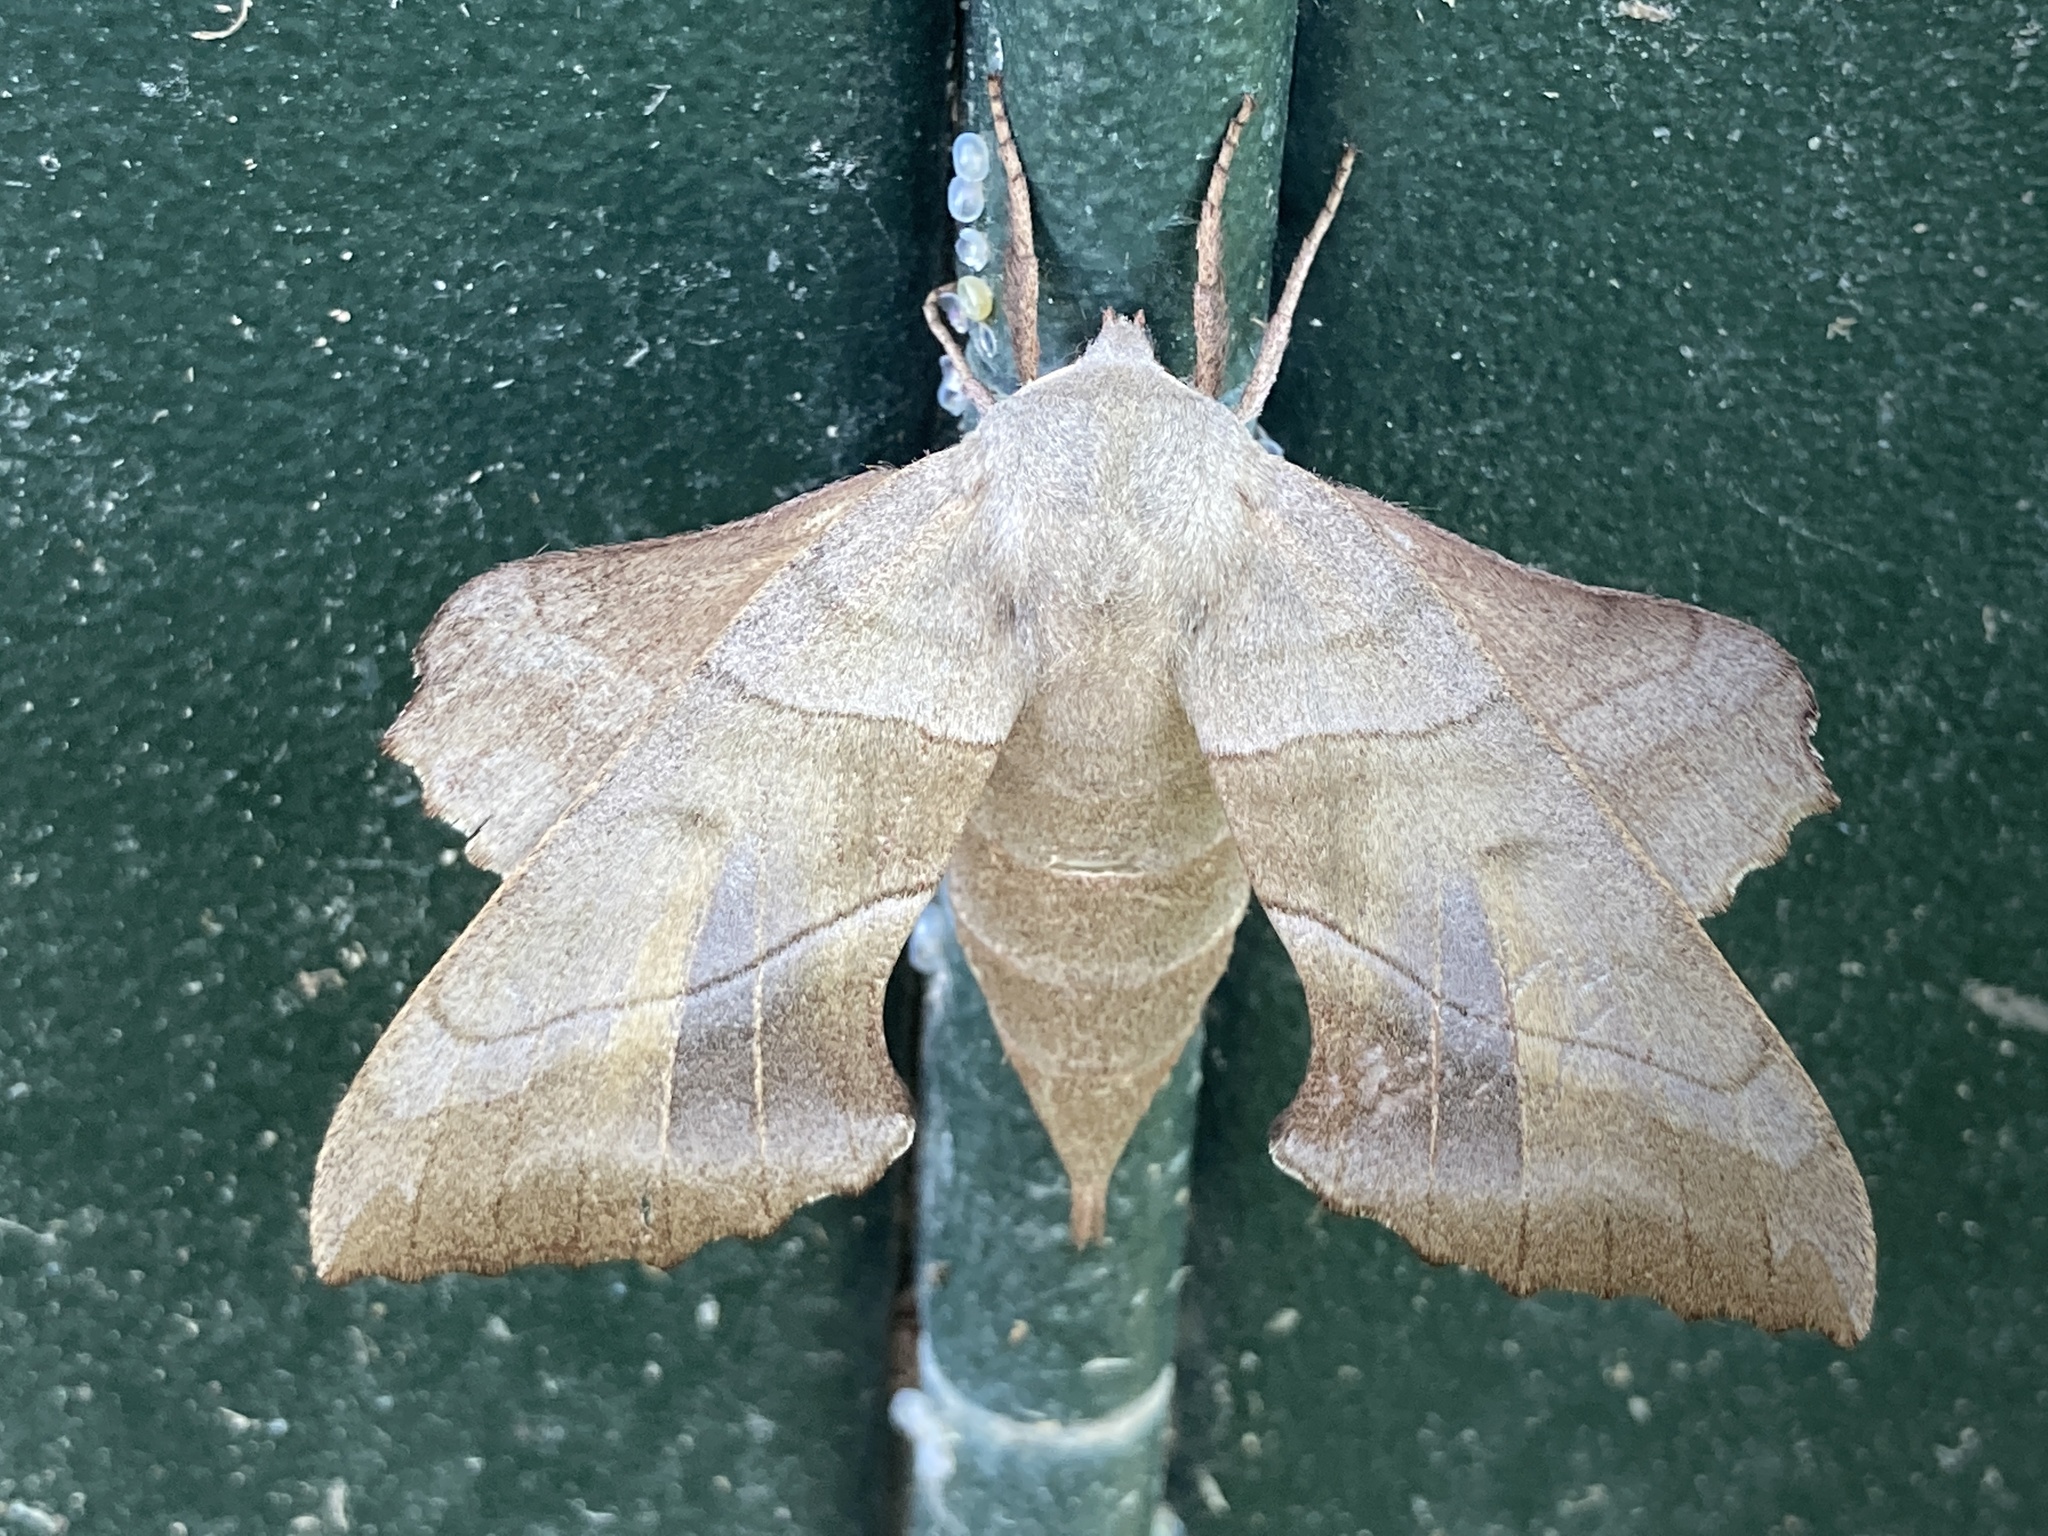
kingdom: Animalia
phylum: Arthropoda
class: Insecta
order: Lepidoptera
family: Sphingidae
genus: Amorpha
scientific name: Amorpha juglandis
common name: Walnut sphinx
